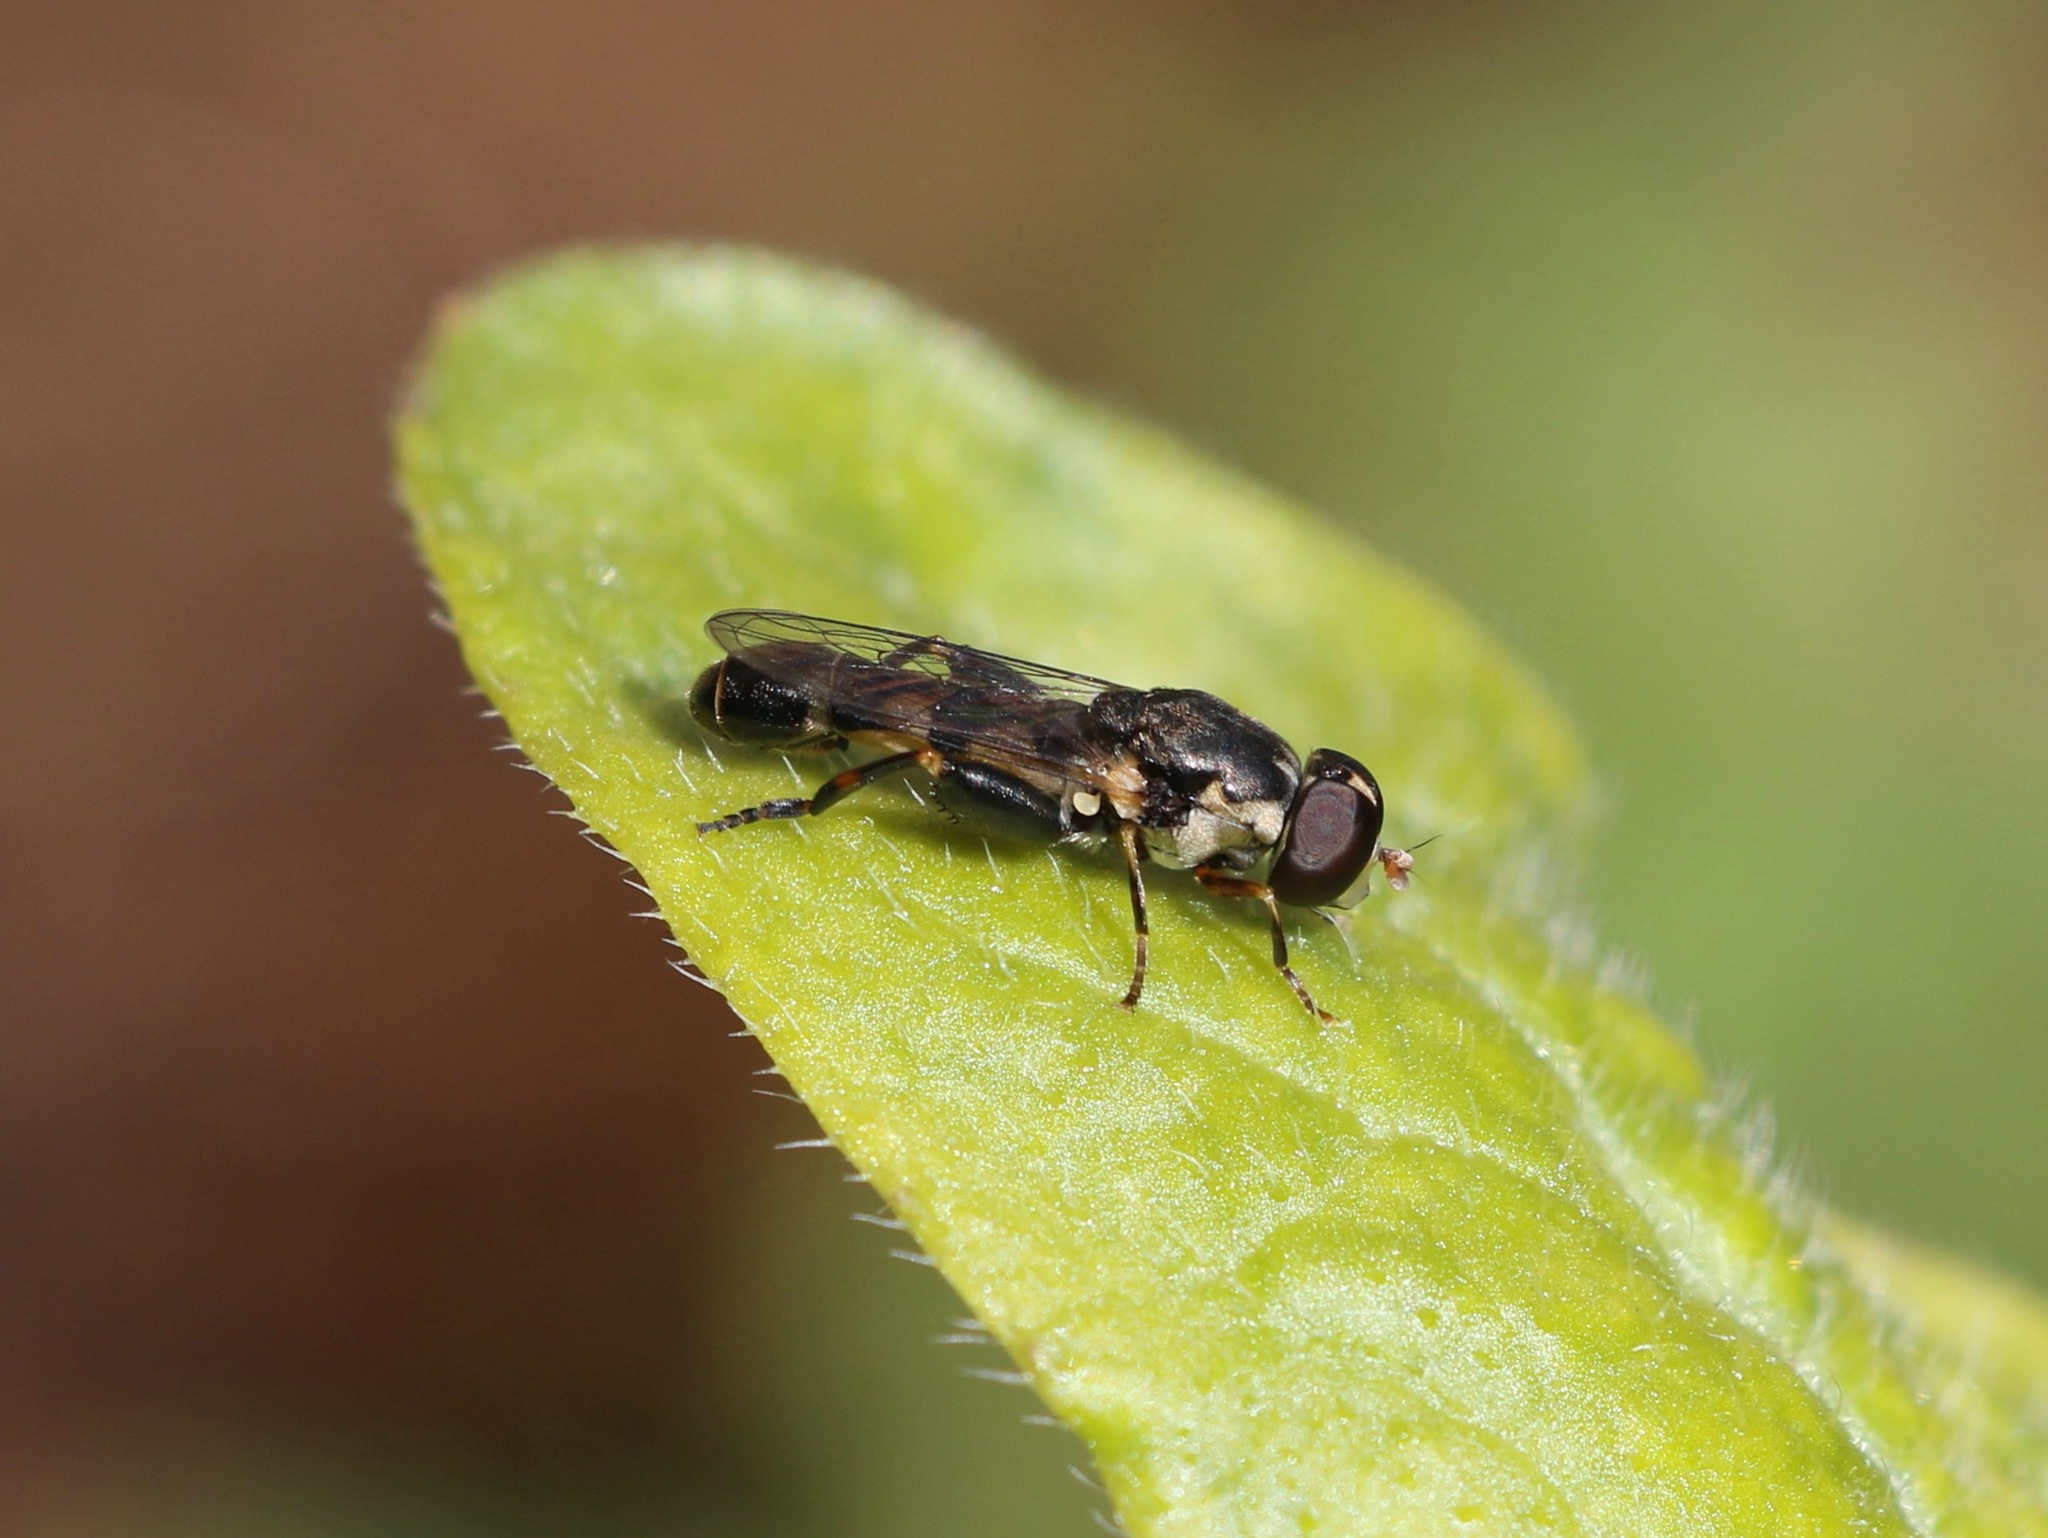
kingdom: Animalia
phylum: Arthropoda
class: Insecta
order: Diptera
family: Syrphidae
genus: Syritta
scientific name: Syritta pipiens
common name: Hover fly
